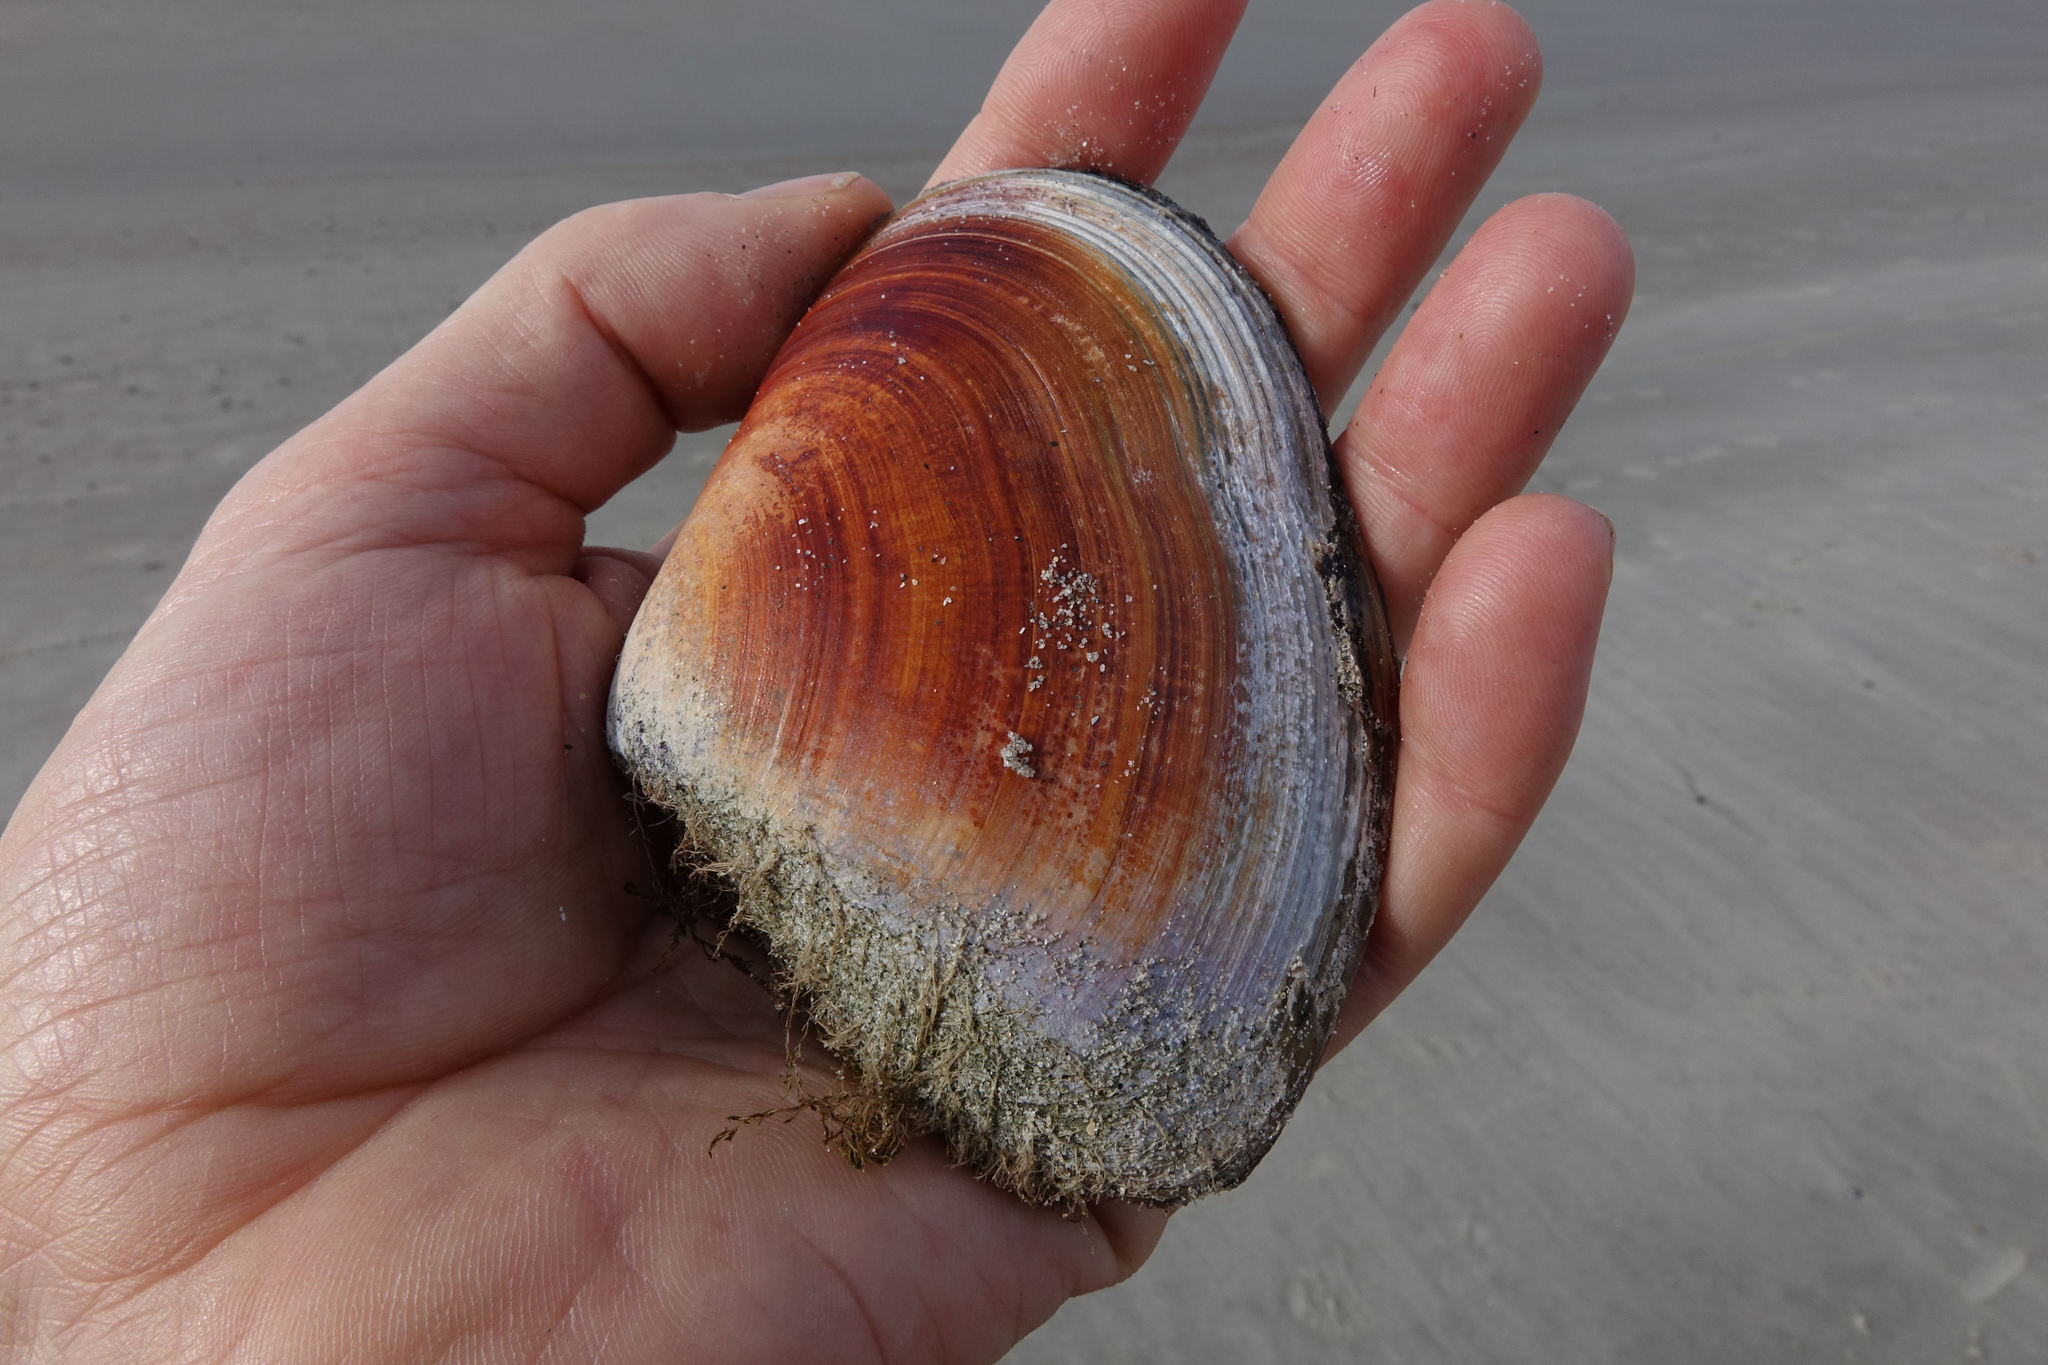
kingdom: Animalia
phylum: Mollusca
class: Bivalvia
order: Venerida
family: Mesodesmatidae
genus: Paphies
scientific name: Paphies donacina
